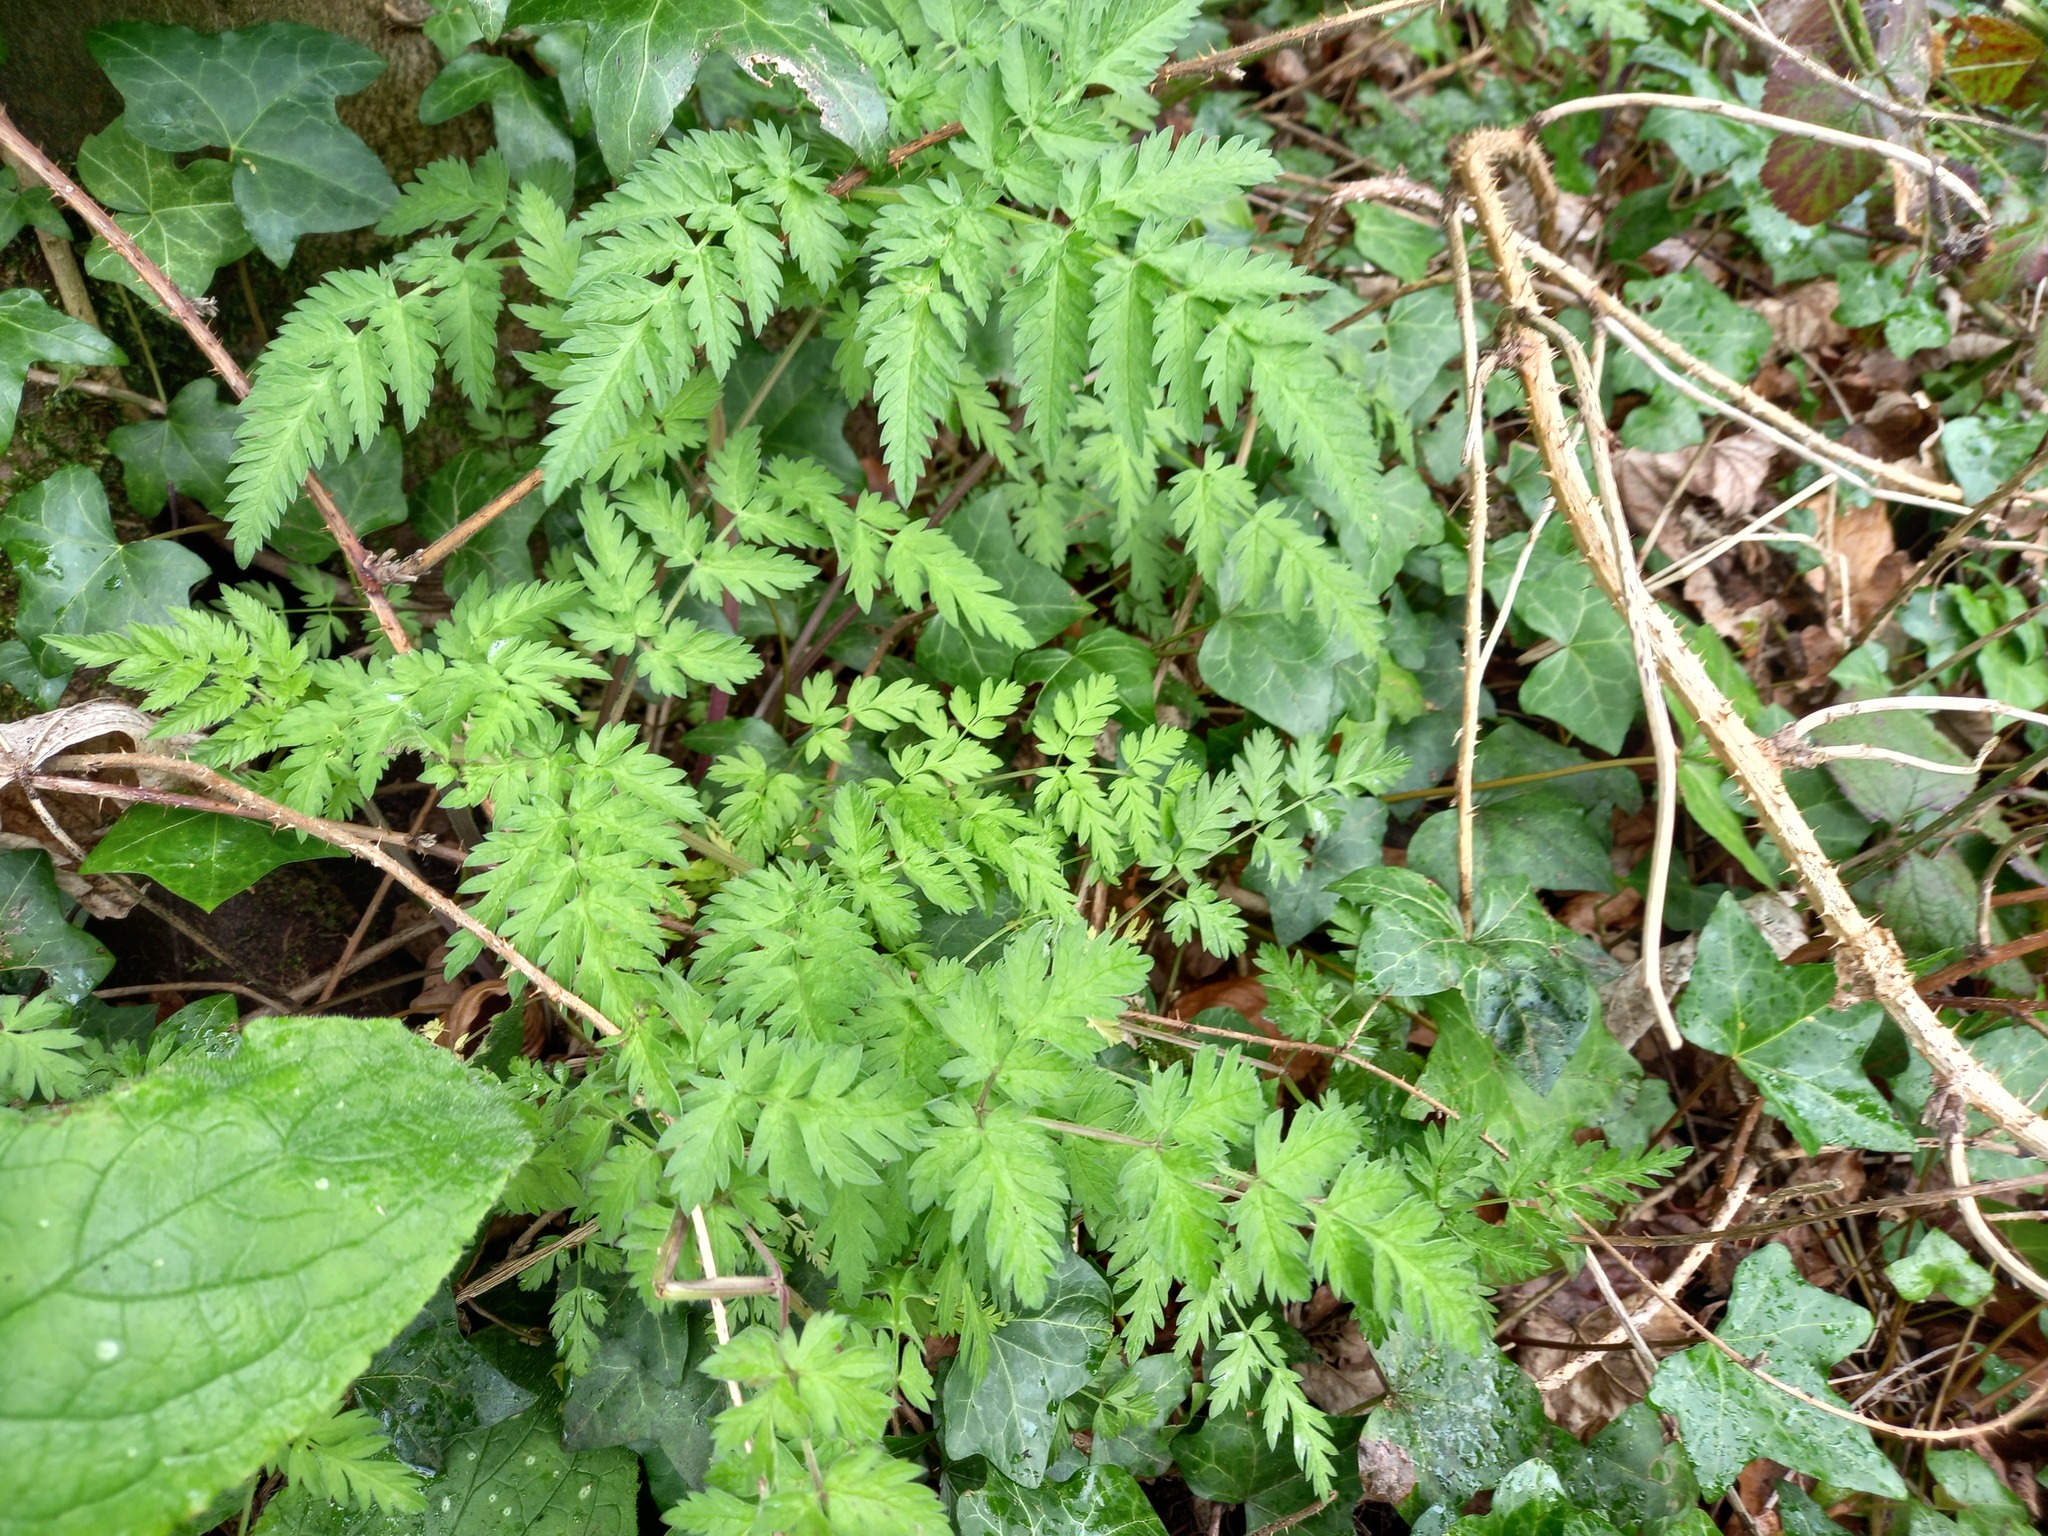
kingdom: Plantae
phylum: Tracheophyta
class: Magnoliopsida
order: Apiales
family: Apiaceae
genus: Anthriscus
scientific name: Anthriscus sylvestris
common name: Cow parsley
